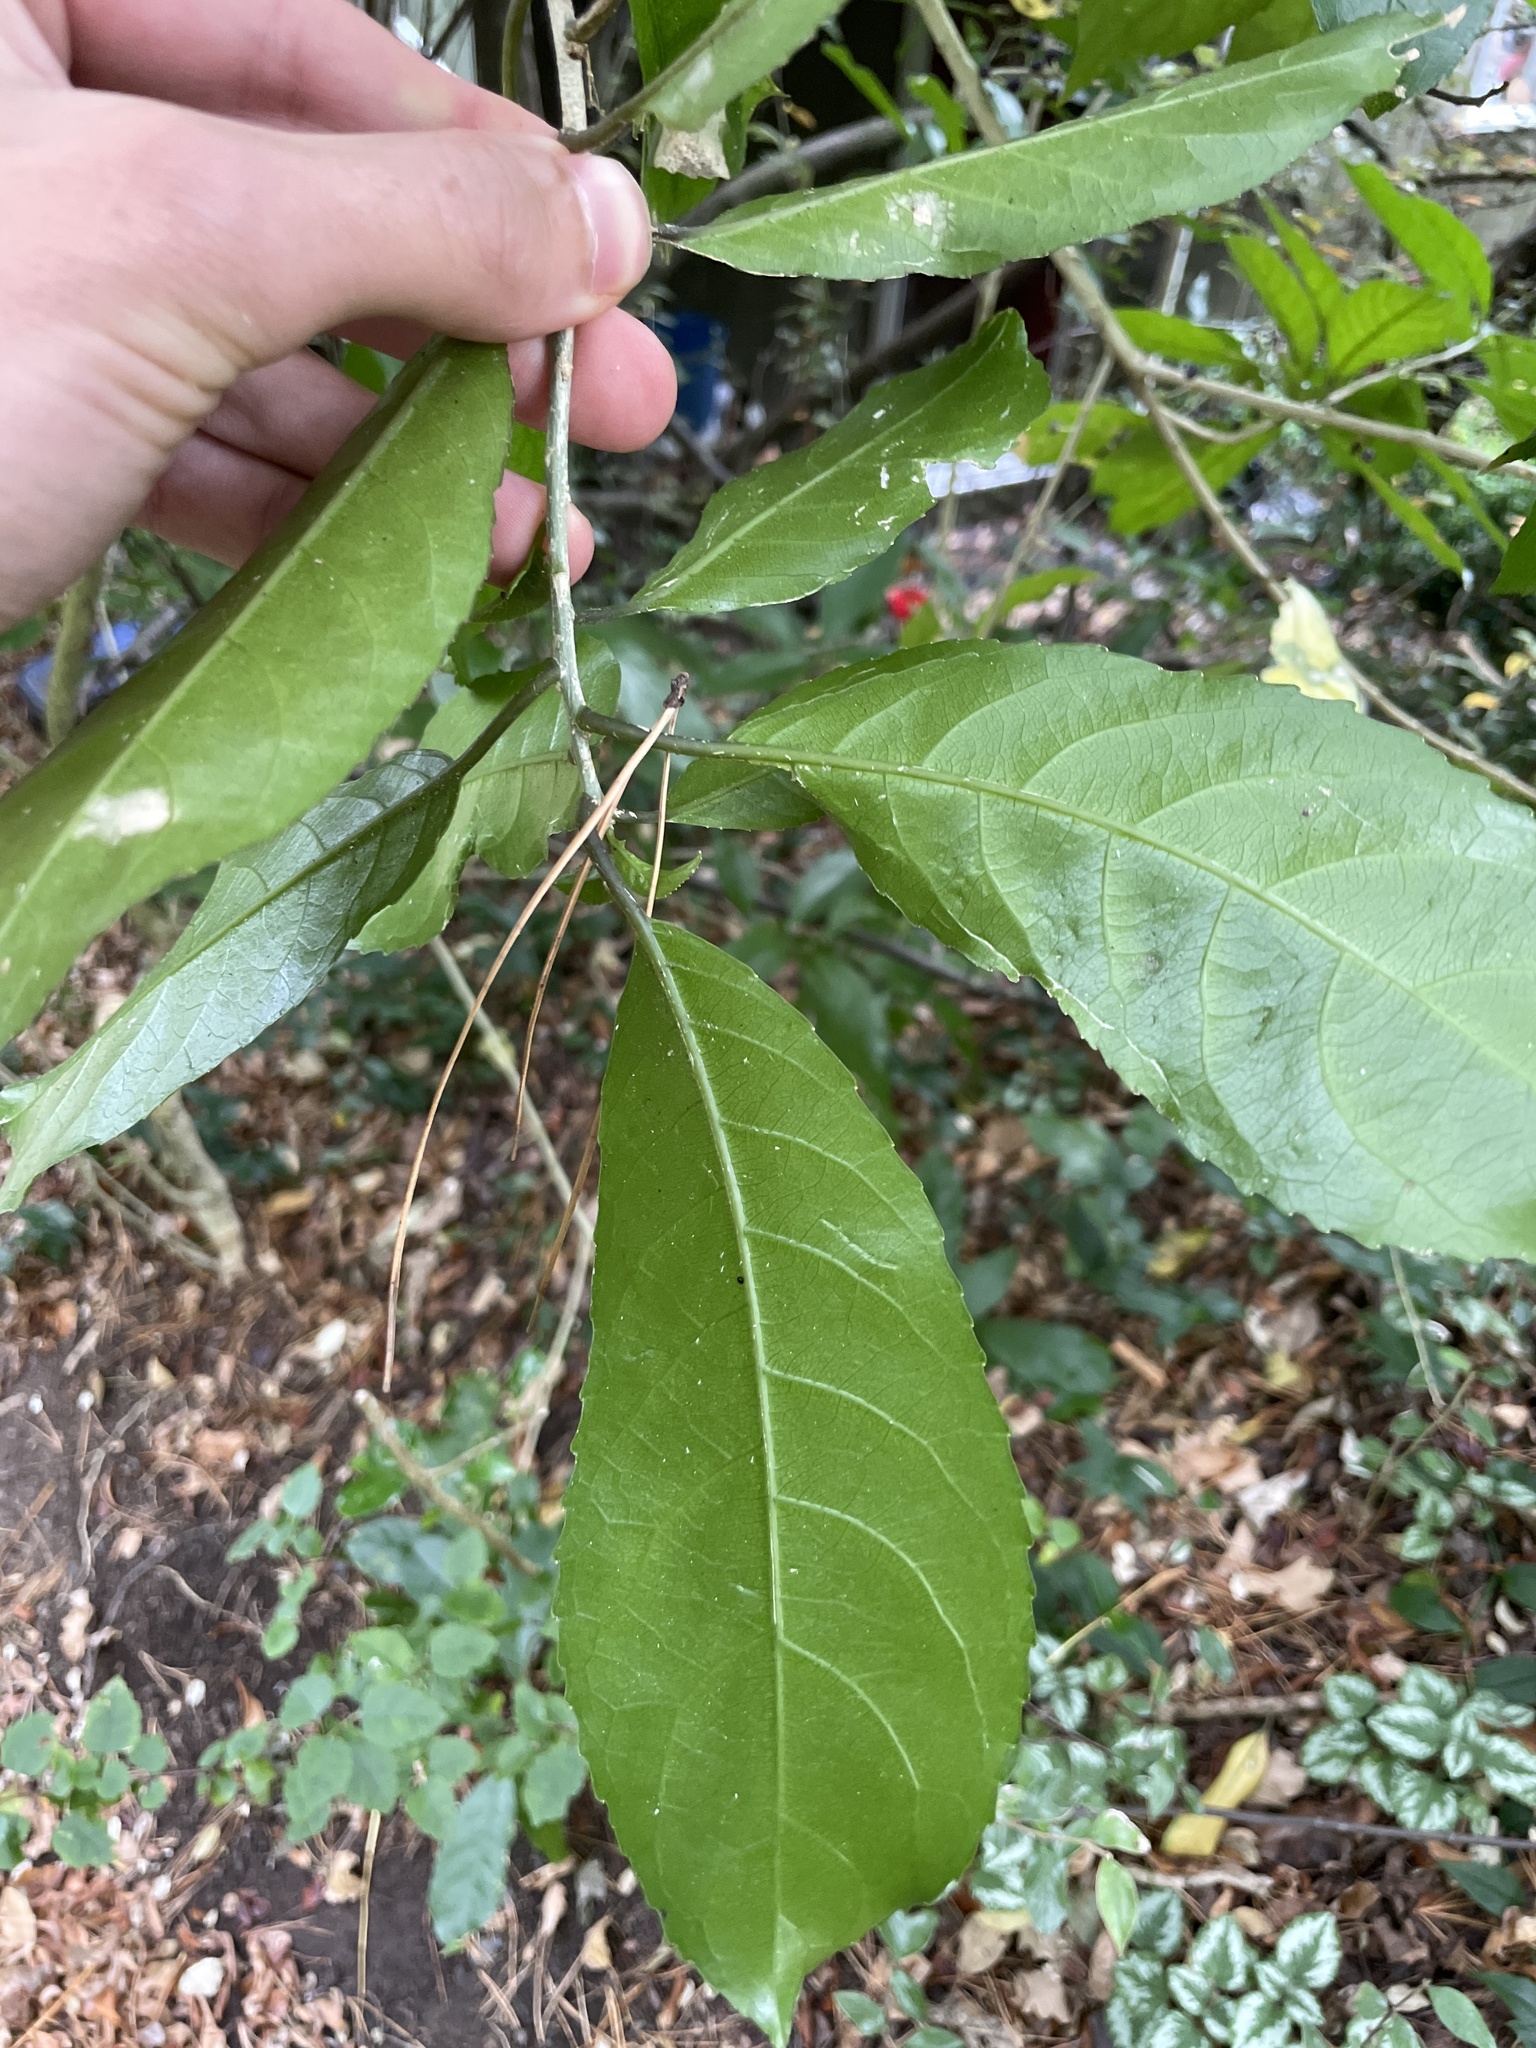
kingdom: Plantae
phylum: Tracheophyta
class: Magnoliopsida
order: Malpighiales
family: Violaceae
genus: Melicytus
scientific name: Melicytus ramiflorus
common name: Mahoe
